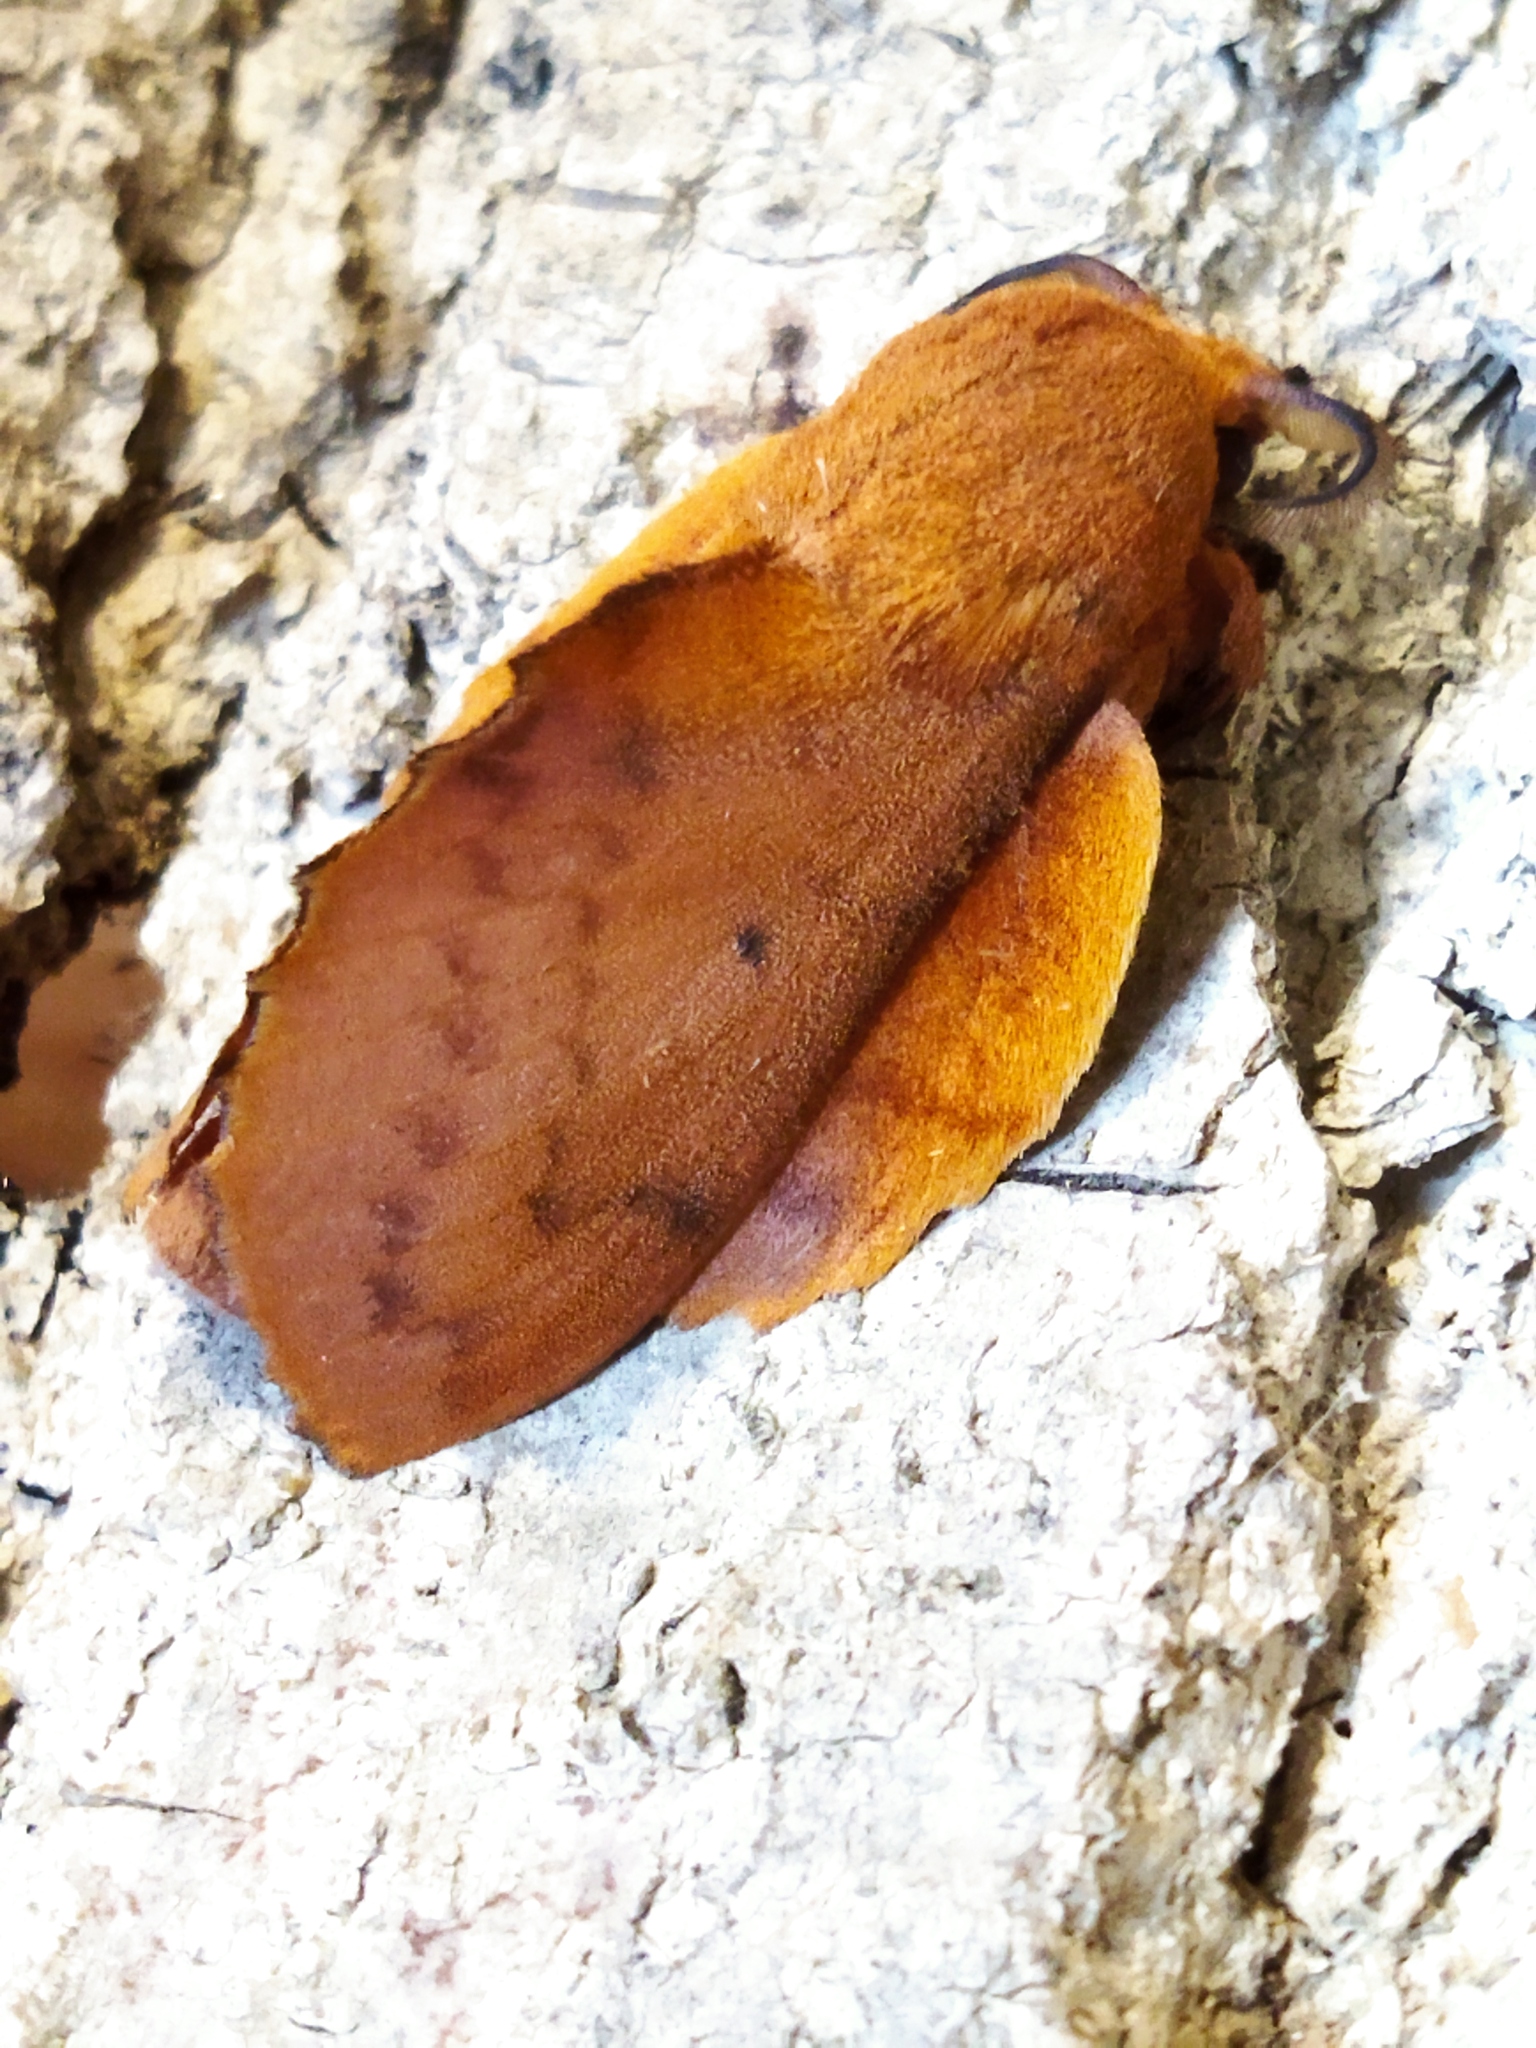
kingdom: Animalia
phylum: Arthropoda
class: Insecta
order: Lepidoptera
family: Lasiocampidae
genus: Gastropacha
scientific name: Gastropacha quercifolia
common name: Lappet
